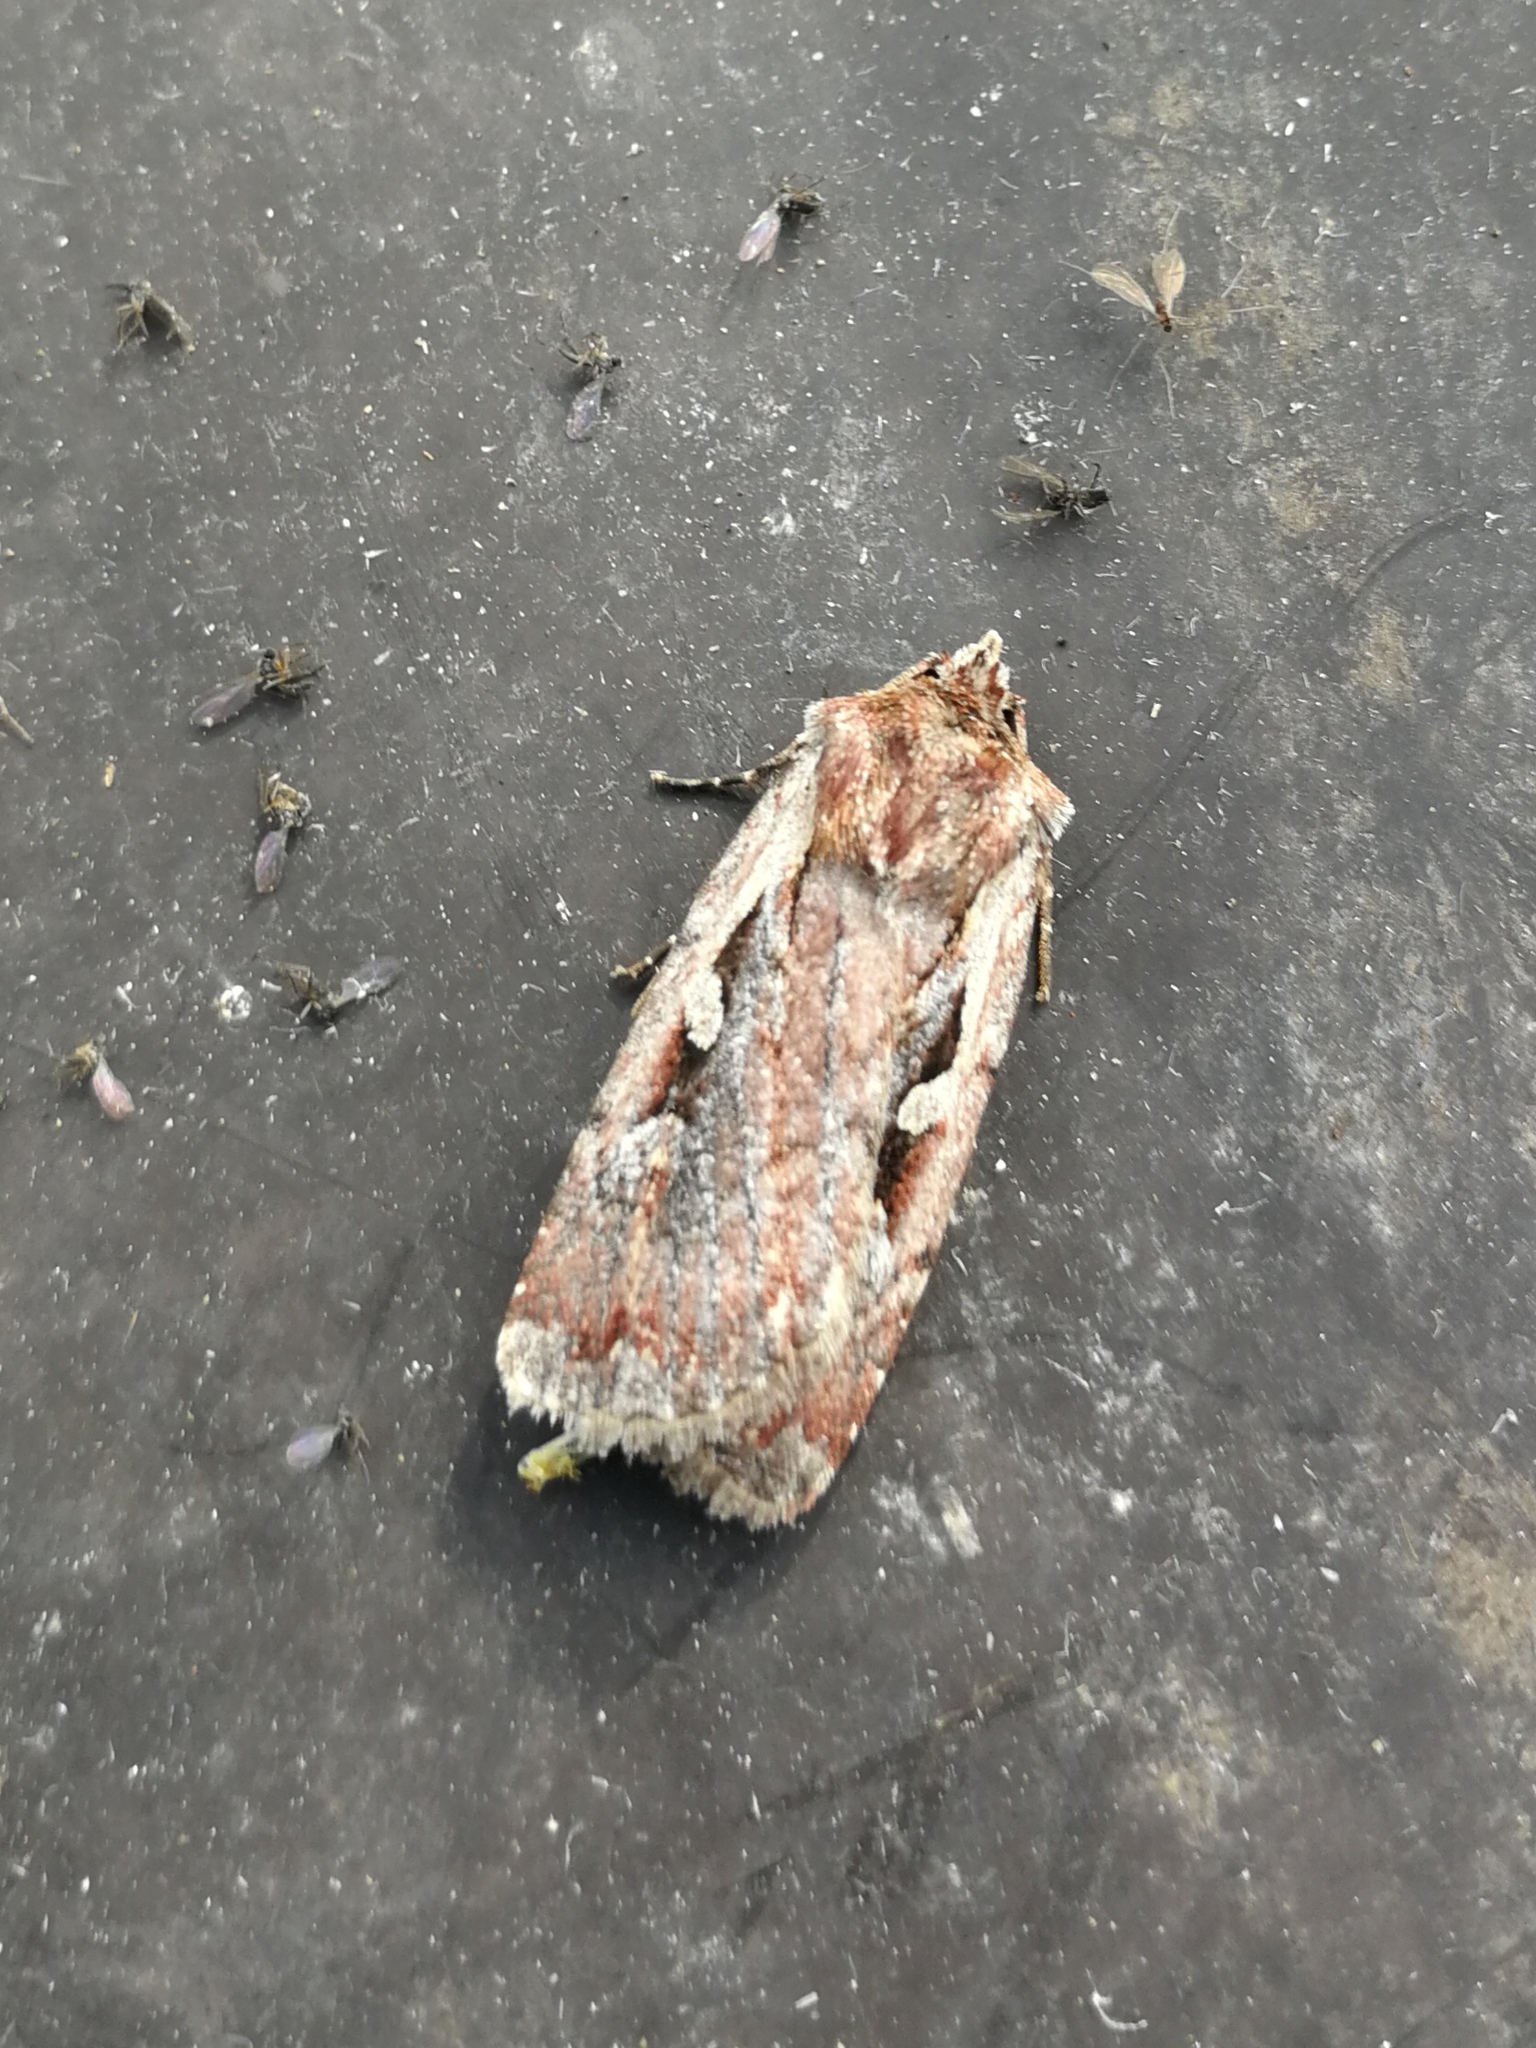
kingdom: Animalia
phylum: Arthropoda
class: Insecta
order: Lepidoptera
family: Noctuidae
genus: Xestia
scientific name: Xestia agathina
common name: Heath rustic
